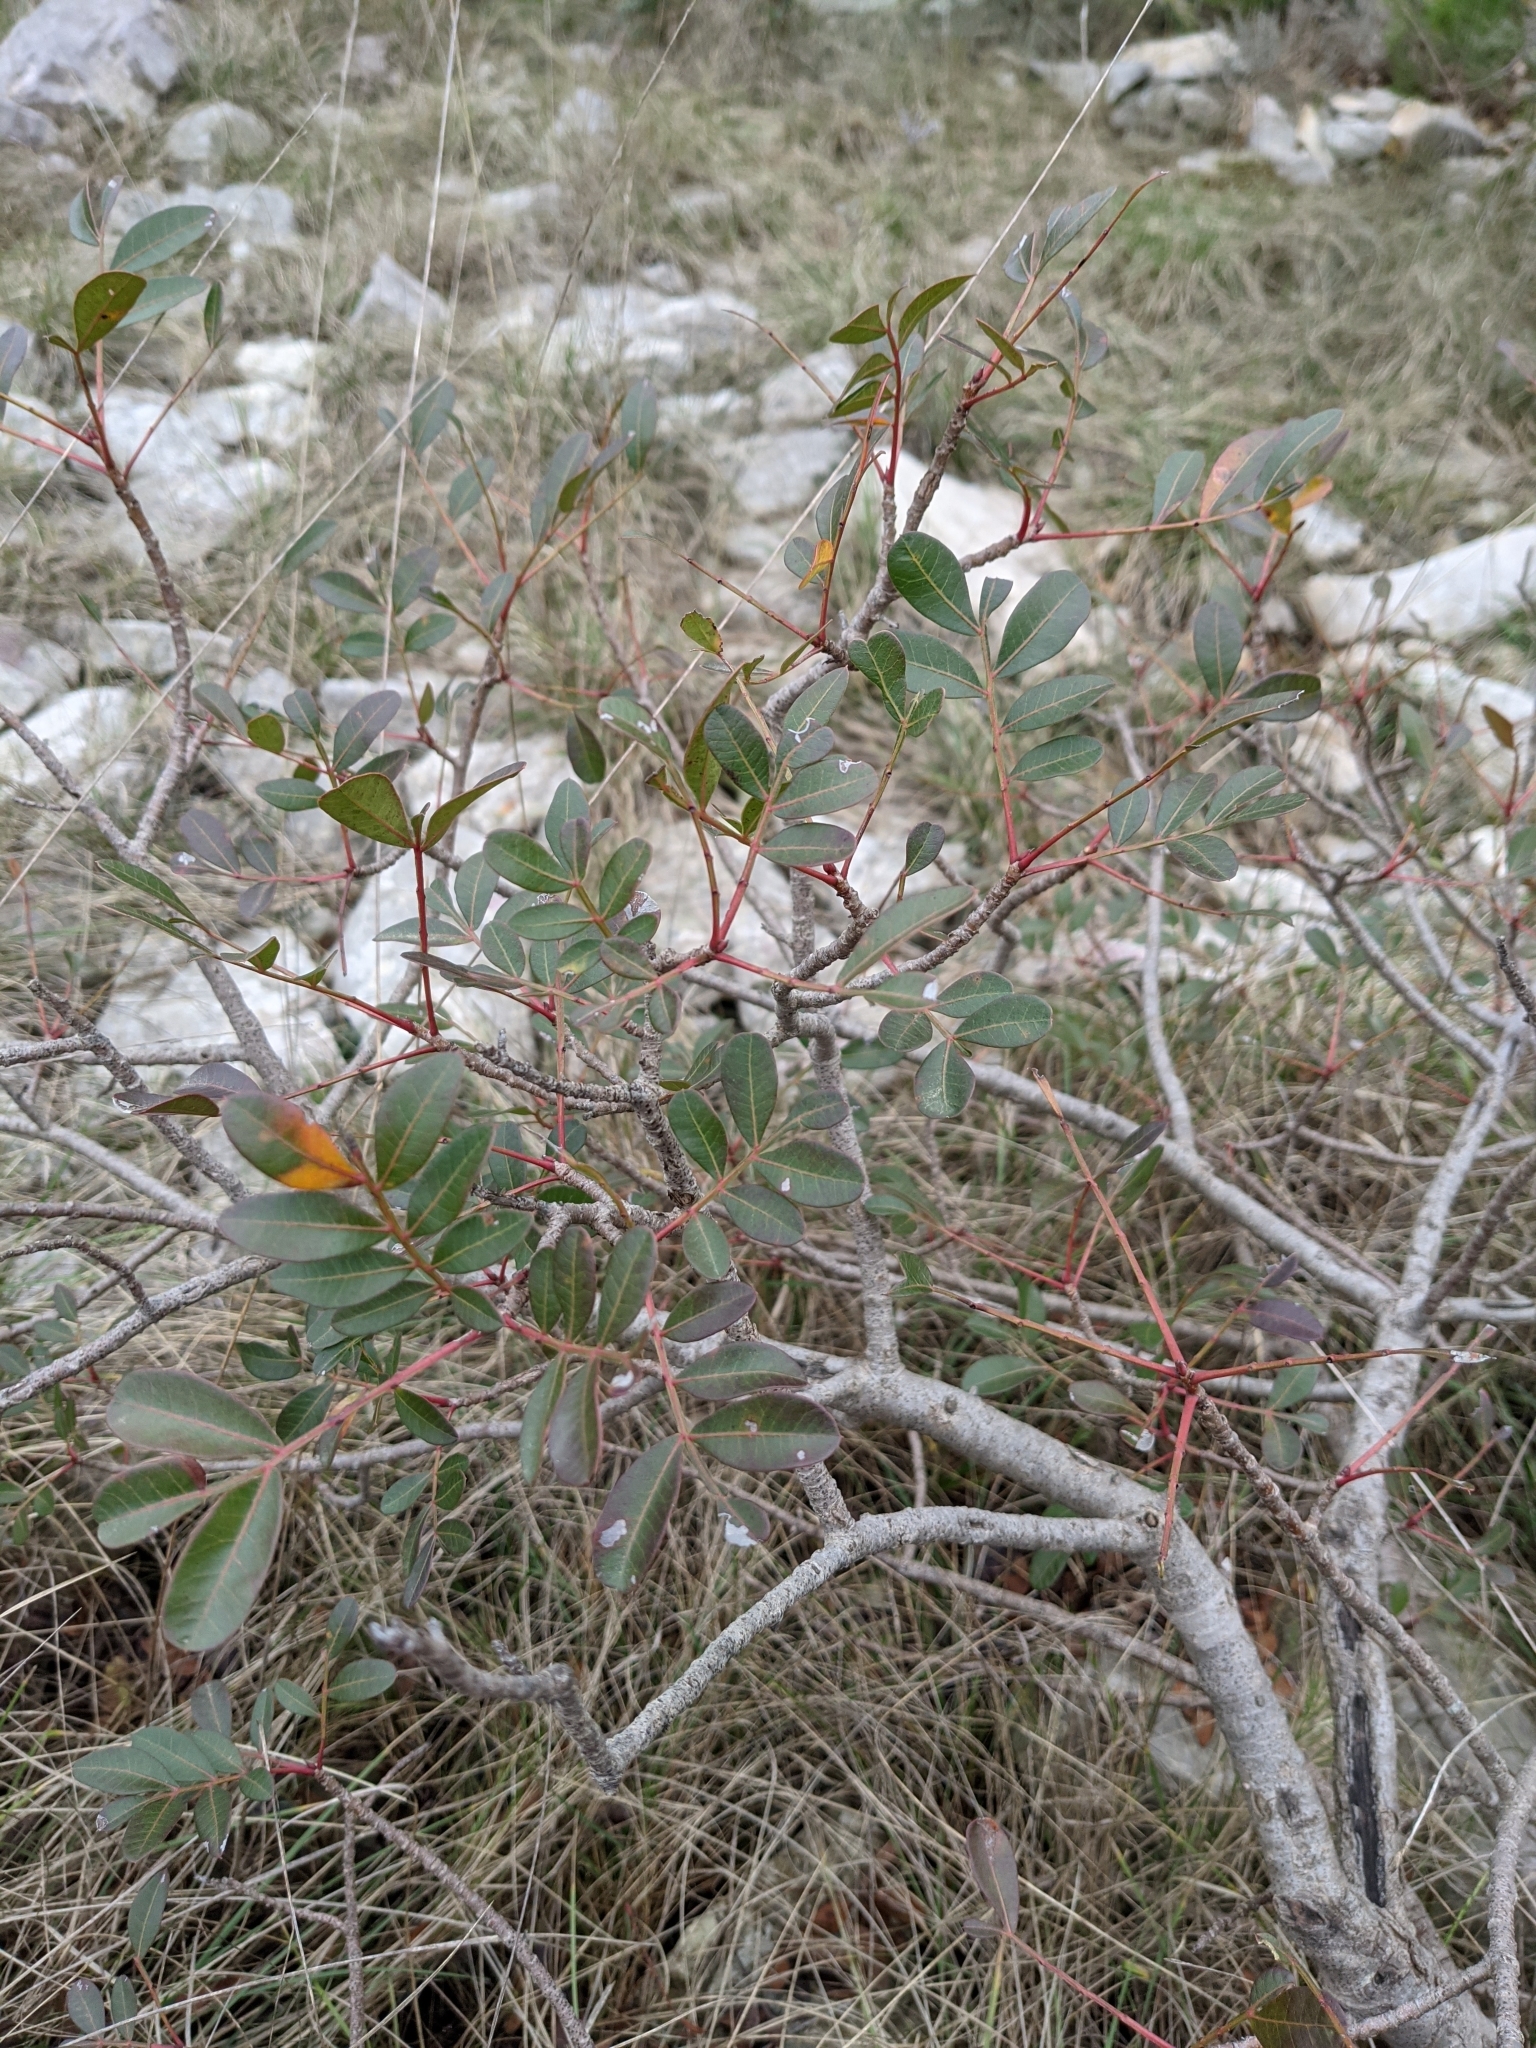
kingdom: Plantae
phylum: Tracheophyta
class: Magnoliopsida
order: Sapindales
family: Anacardiaceae
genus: Pistacia
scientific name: Pistacia saportae
